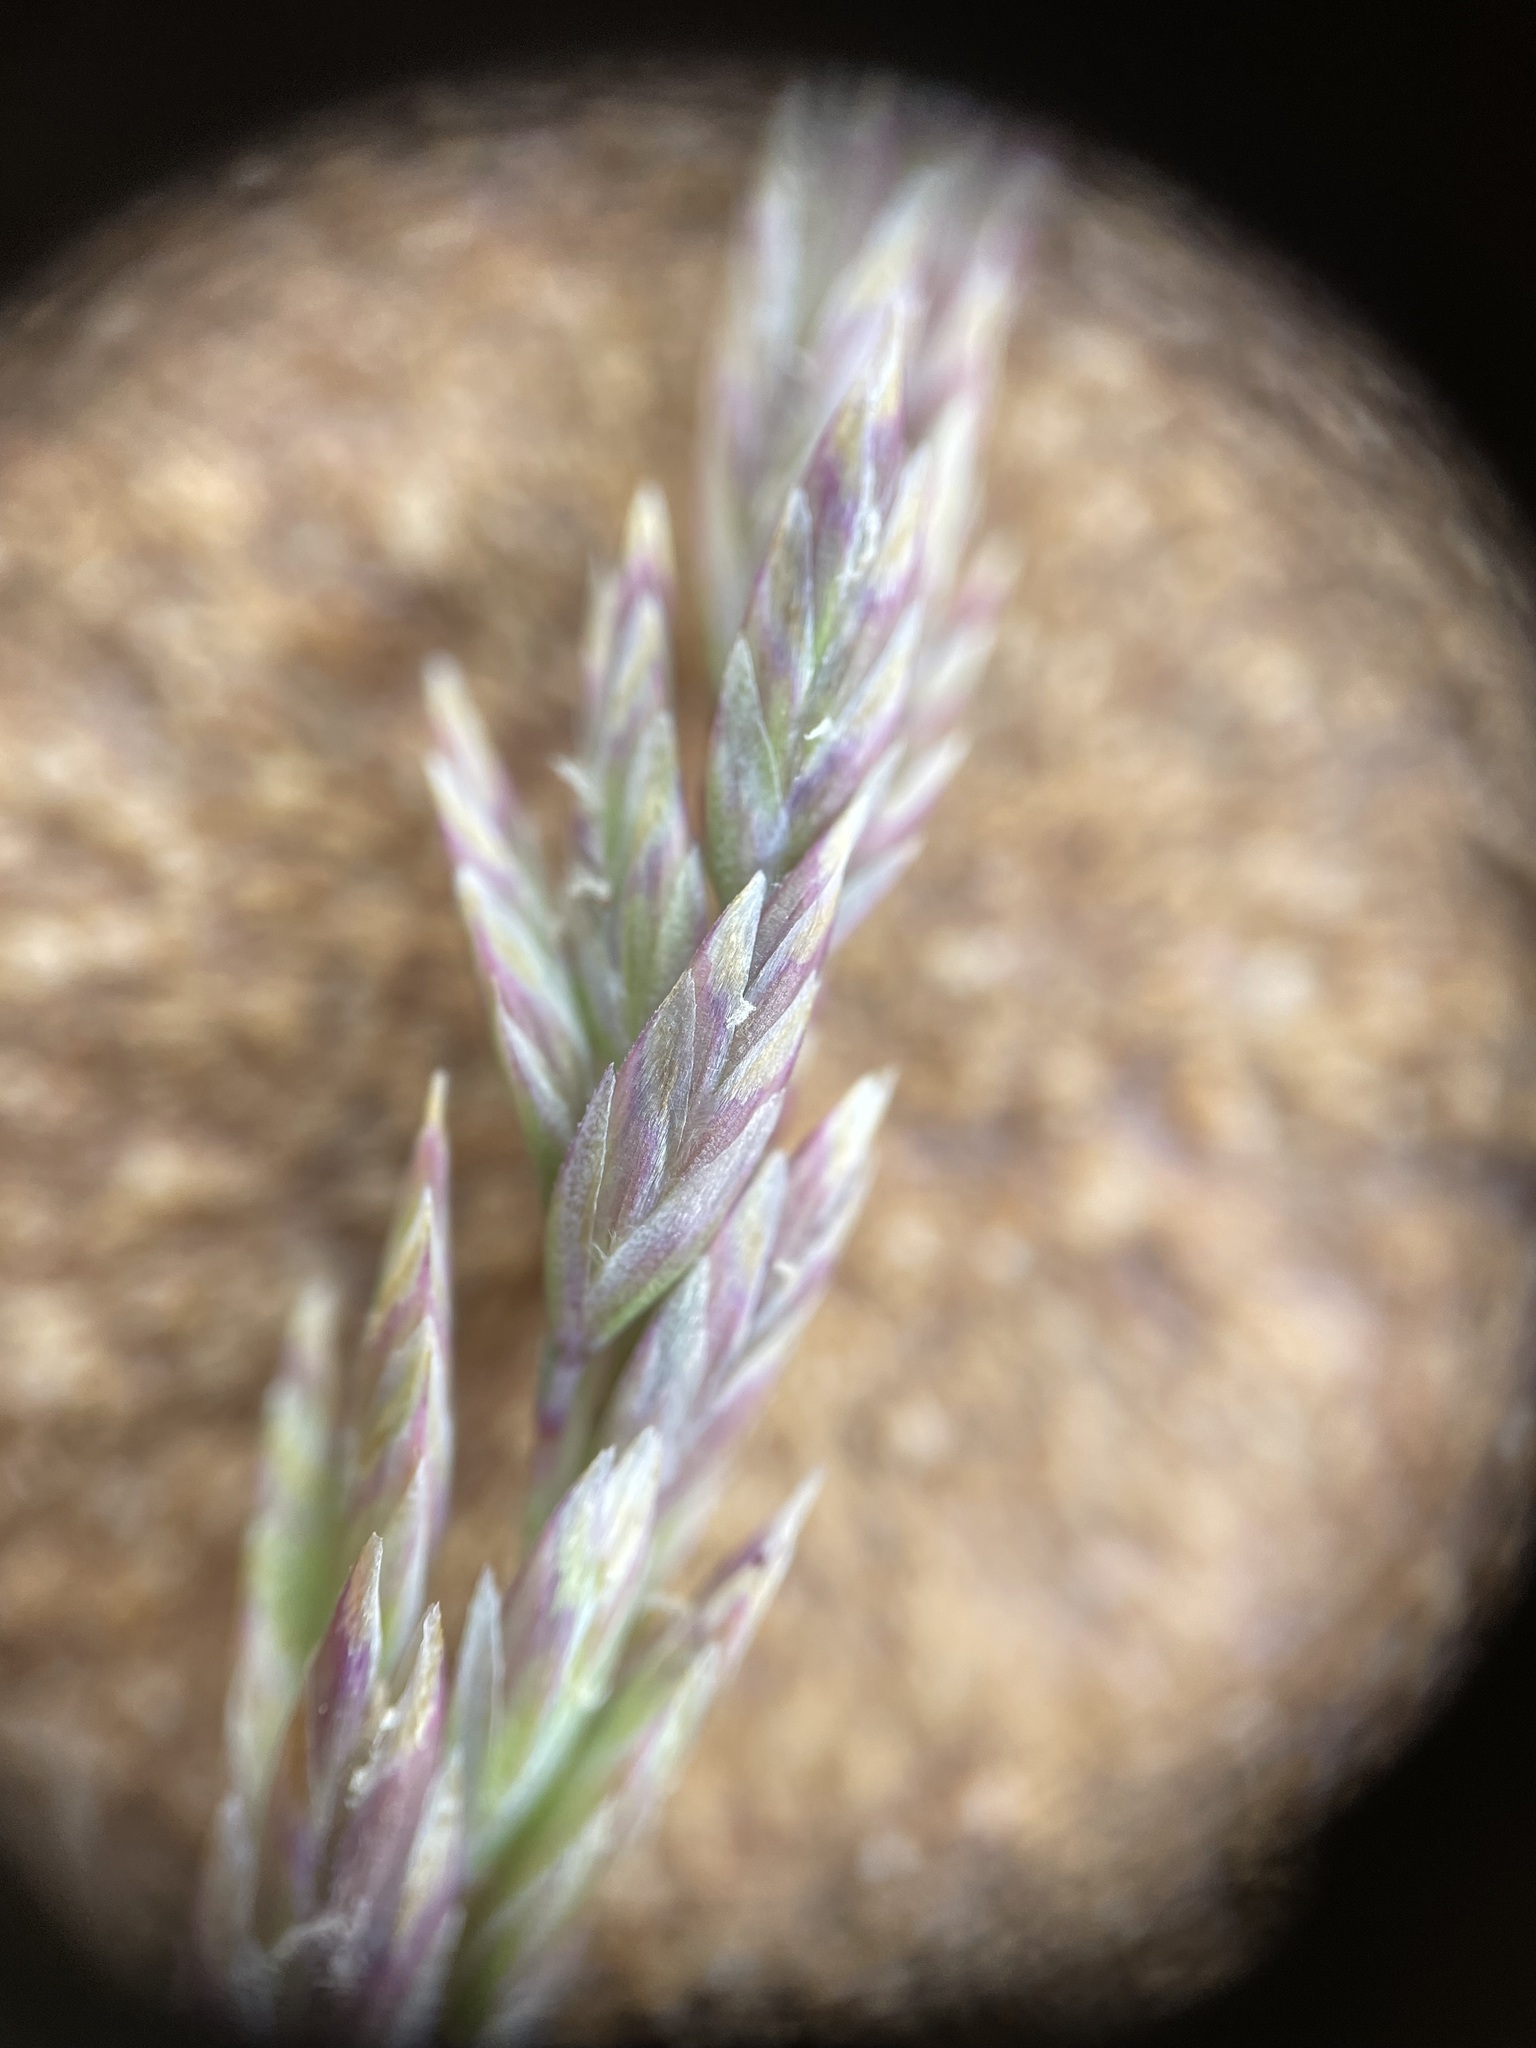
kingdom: Plantae
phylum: Tracheophyta
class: Liliopsida
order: Poales
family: Poaceae
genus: Poa
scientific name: Poa fendleriana
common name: Mutton bluegrass
